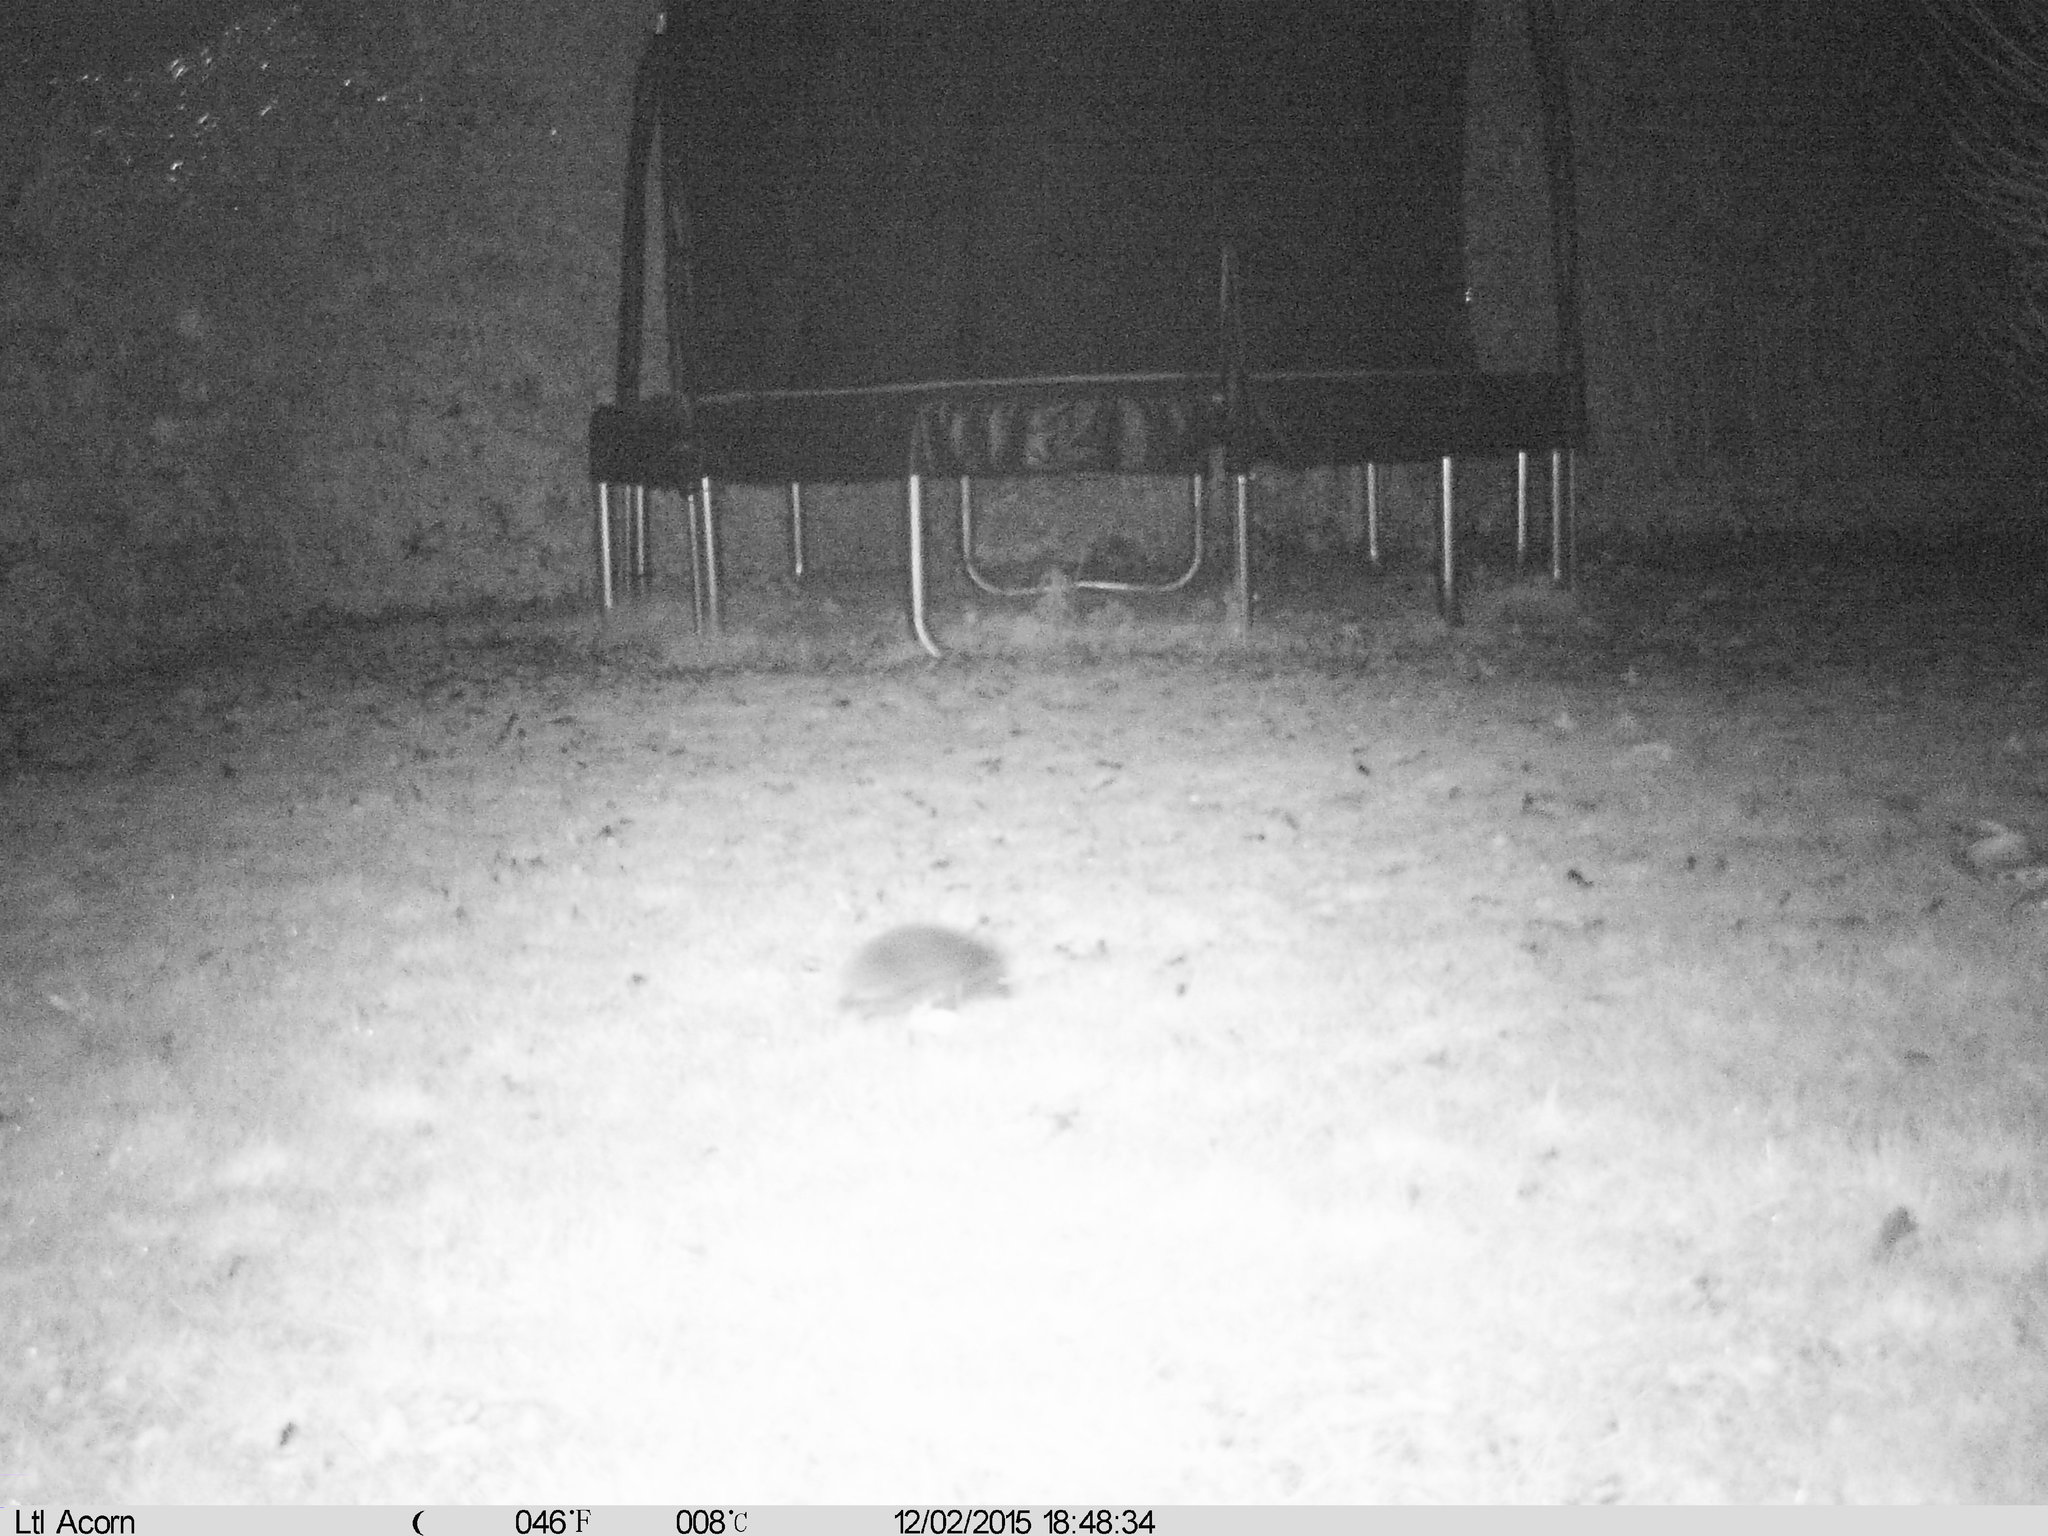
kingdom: Animalia
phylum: Chordata
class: Mammalia
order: Erinaceomorpha
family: Erinaceidae
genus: Erinaceus
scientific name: Erinaceus europaeus
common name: West european hedgehog
